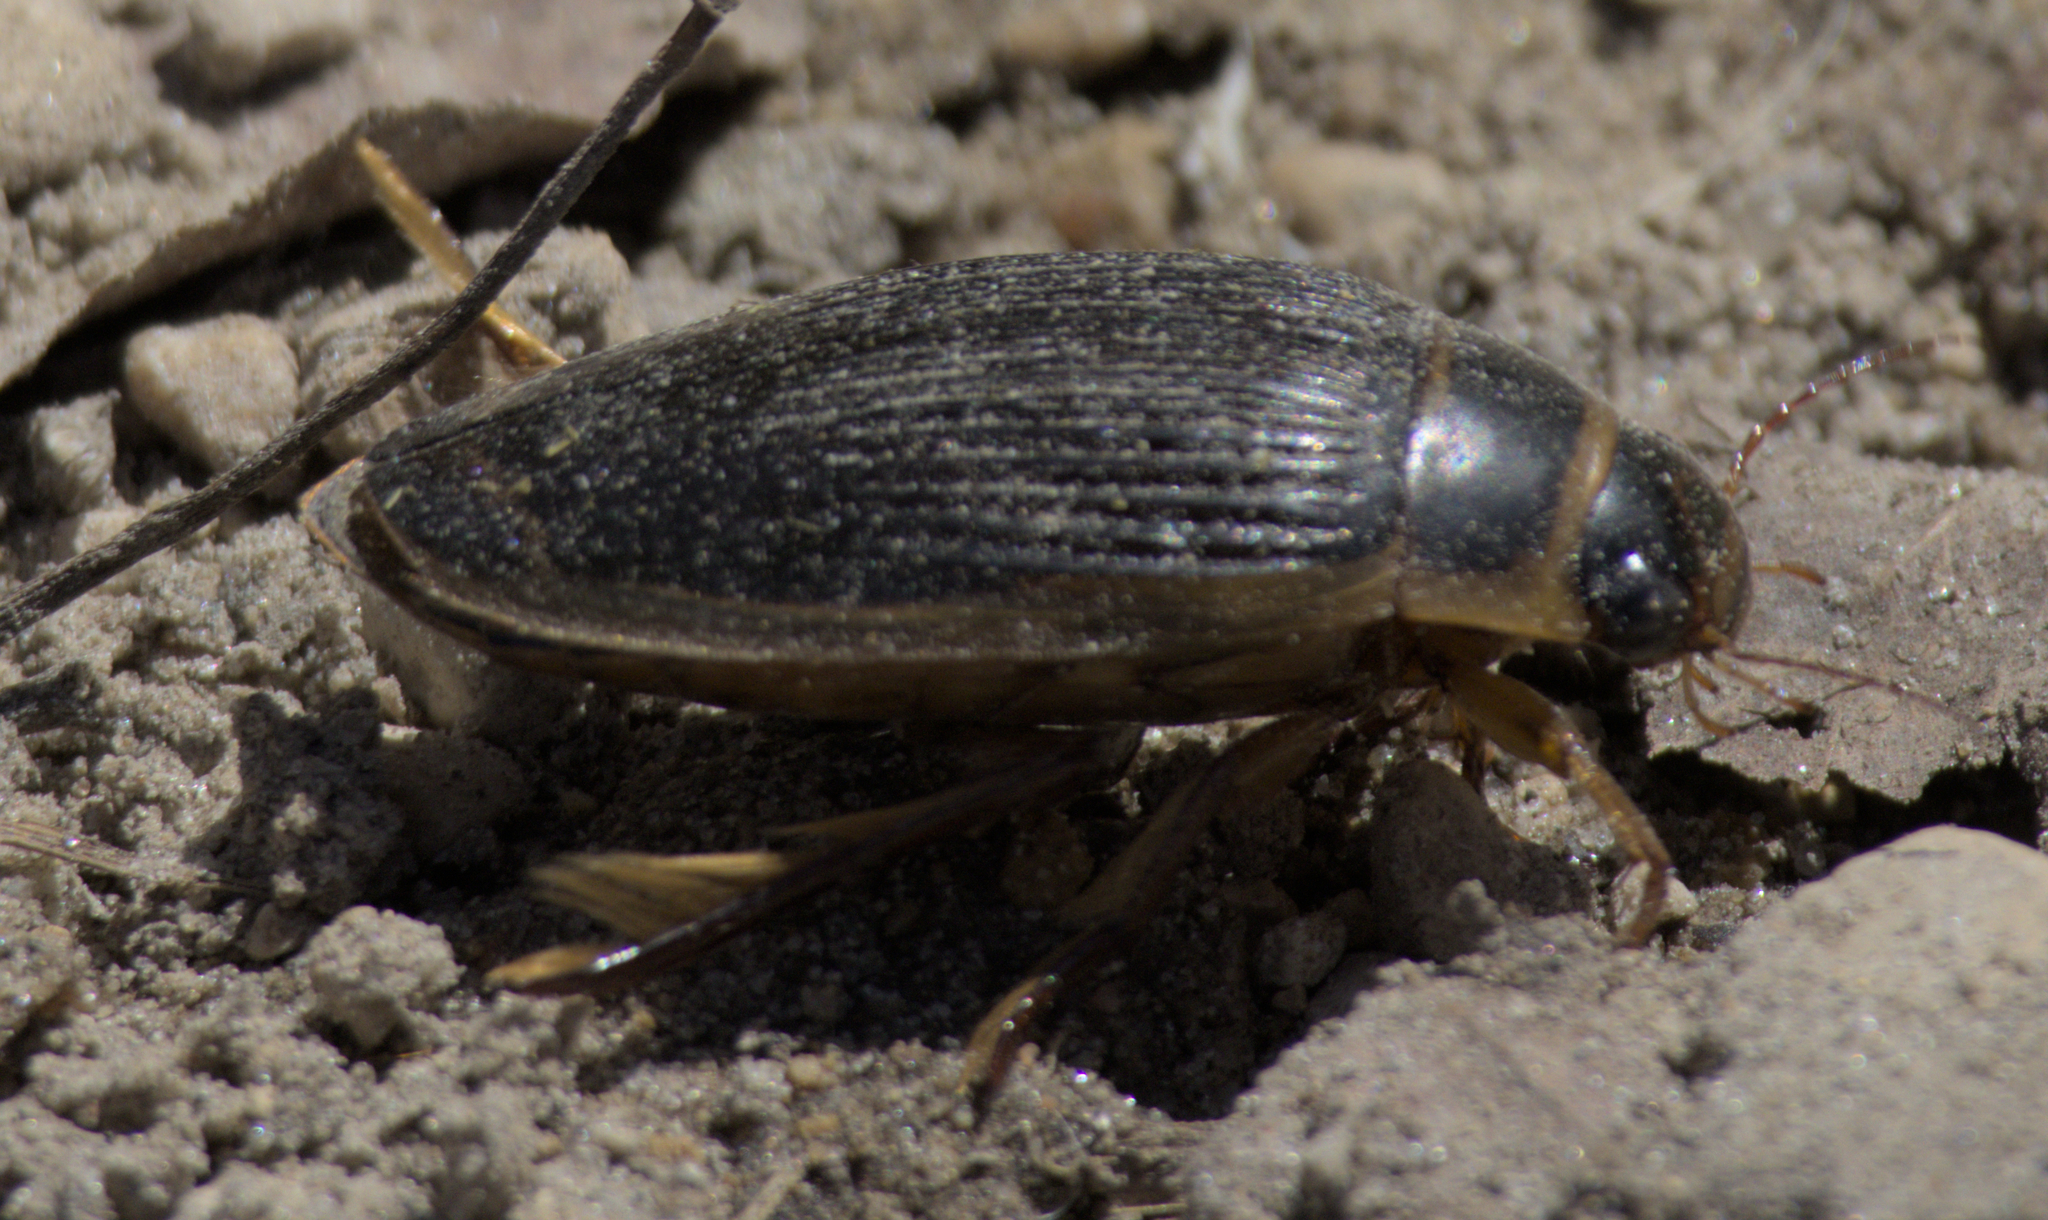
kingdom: Animalia
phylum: Arthropoda
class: Insecta
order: Coleoptera
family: Dytiscidae
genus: Dytiscus
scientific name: Dytiscus
